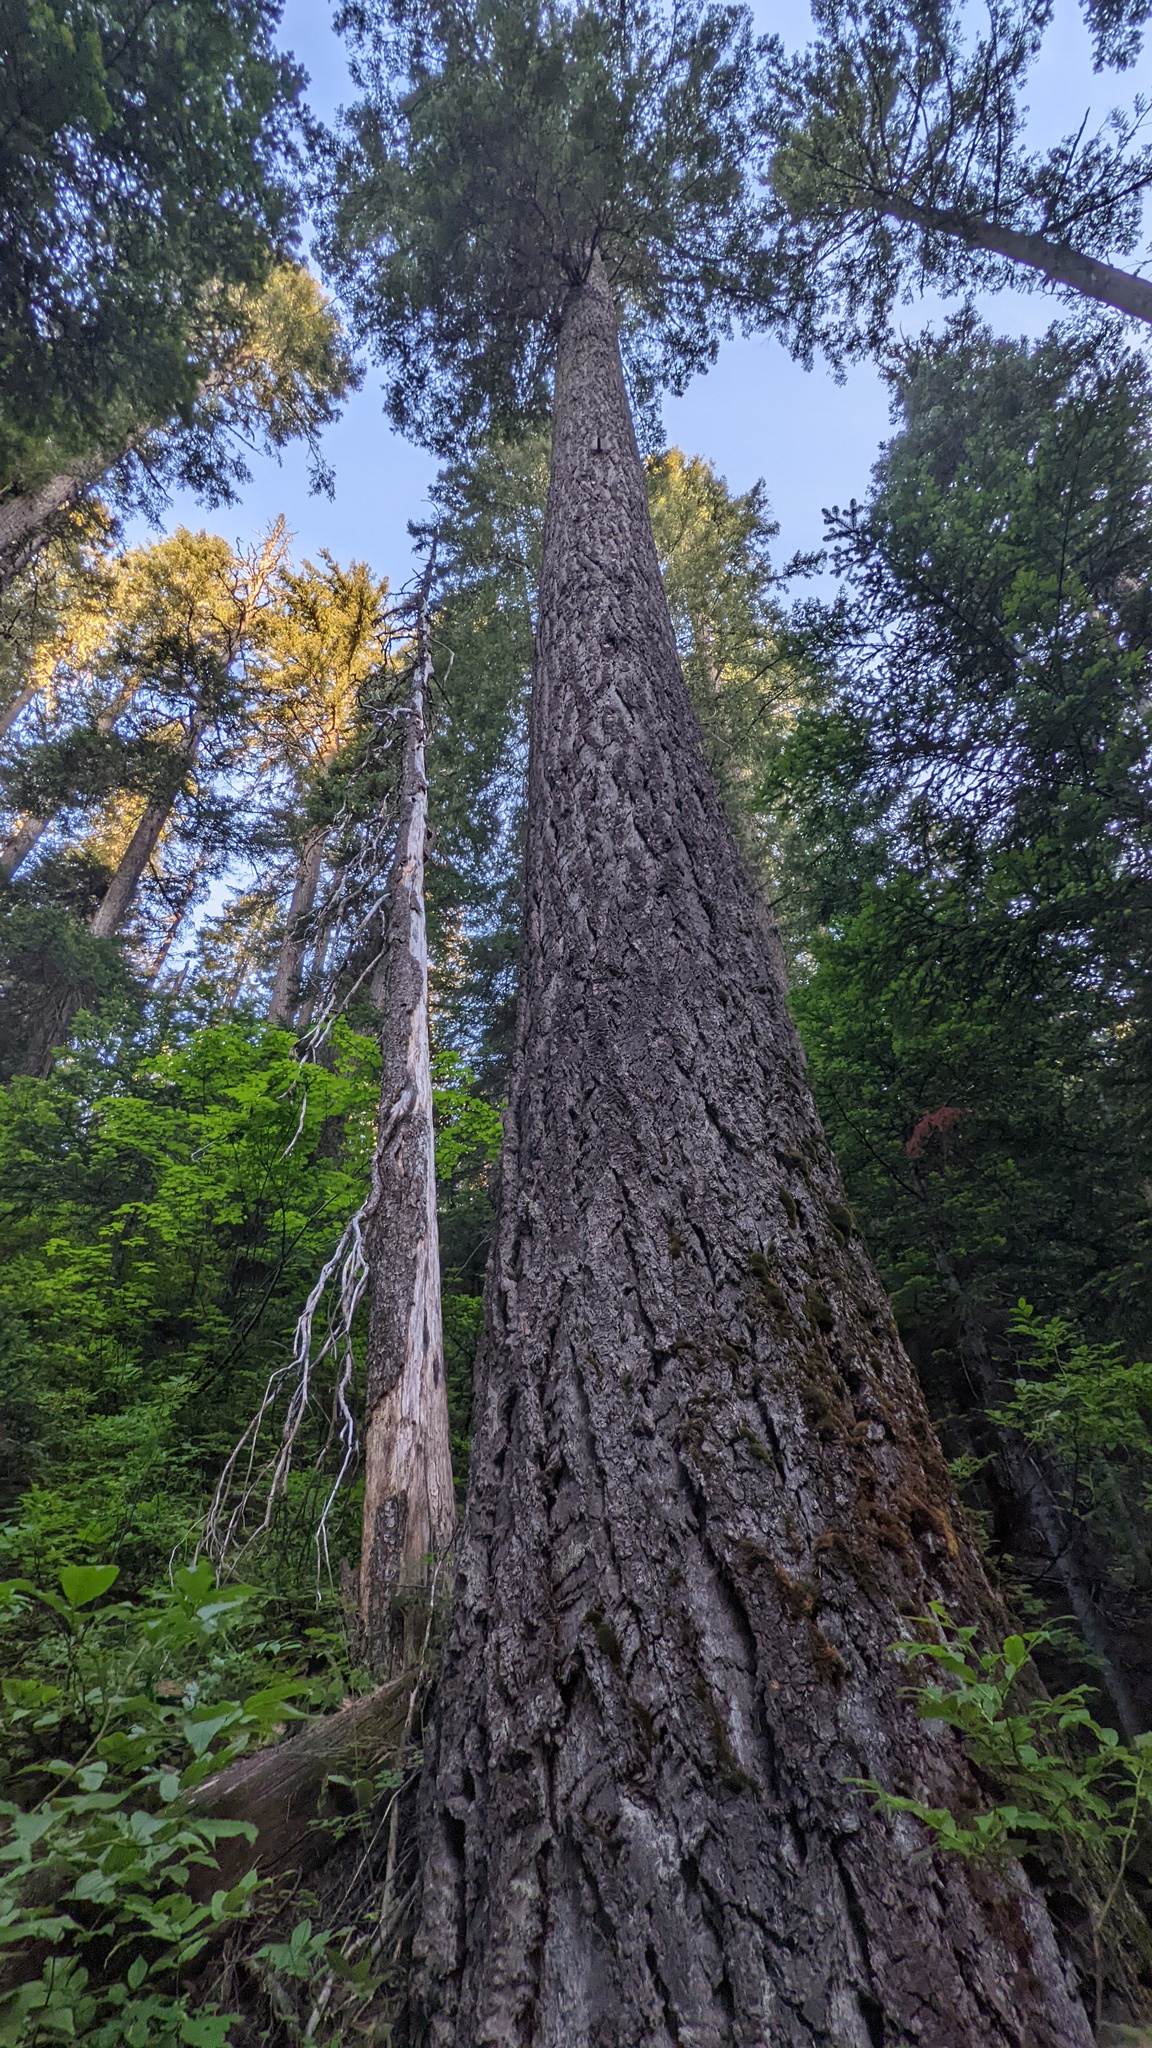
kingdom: Plantae
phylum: Tracheophyta
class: Pinopsida
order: Pinales
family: Pinaceae
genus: Pseudotsuga
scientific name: Pseudotsuga menziesii
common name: Douglas fir
